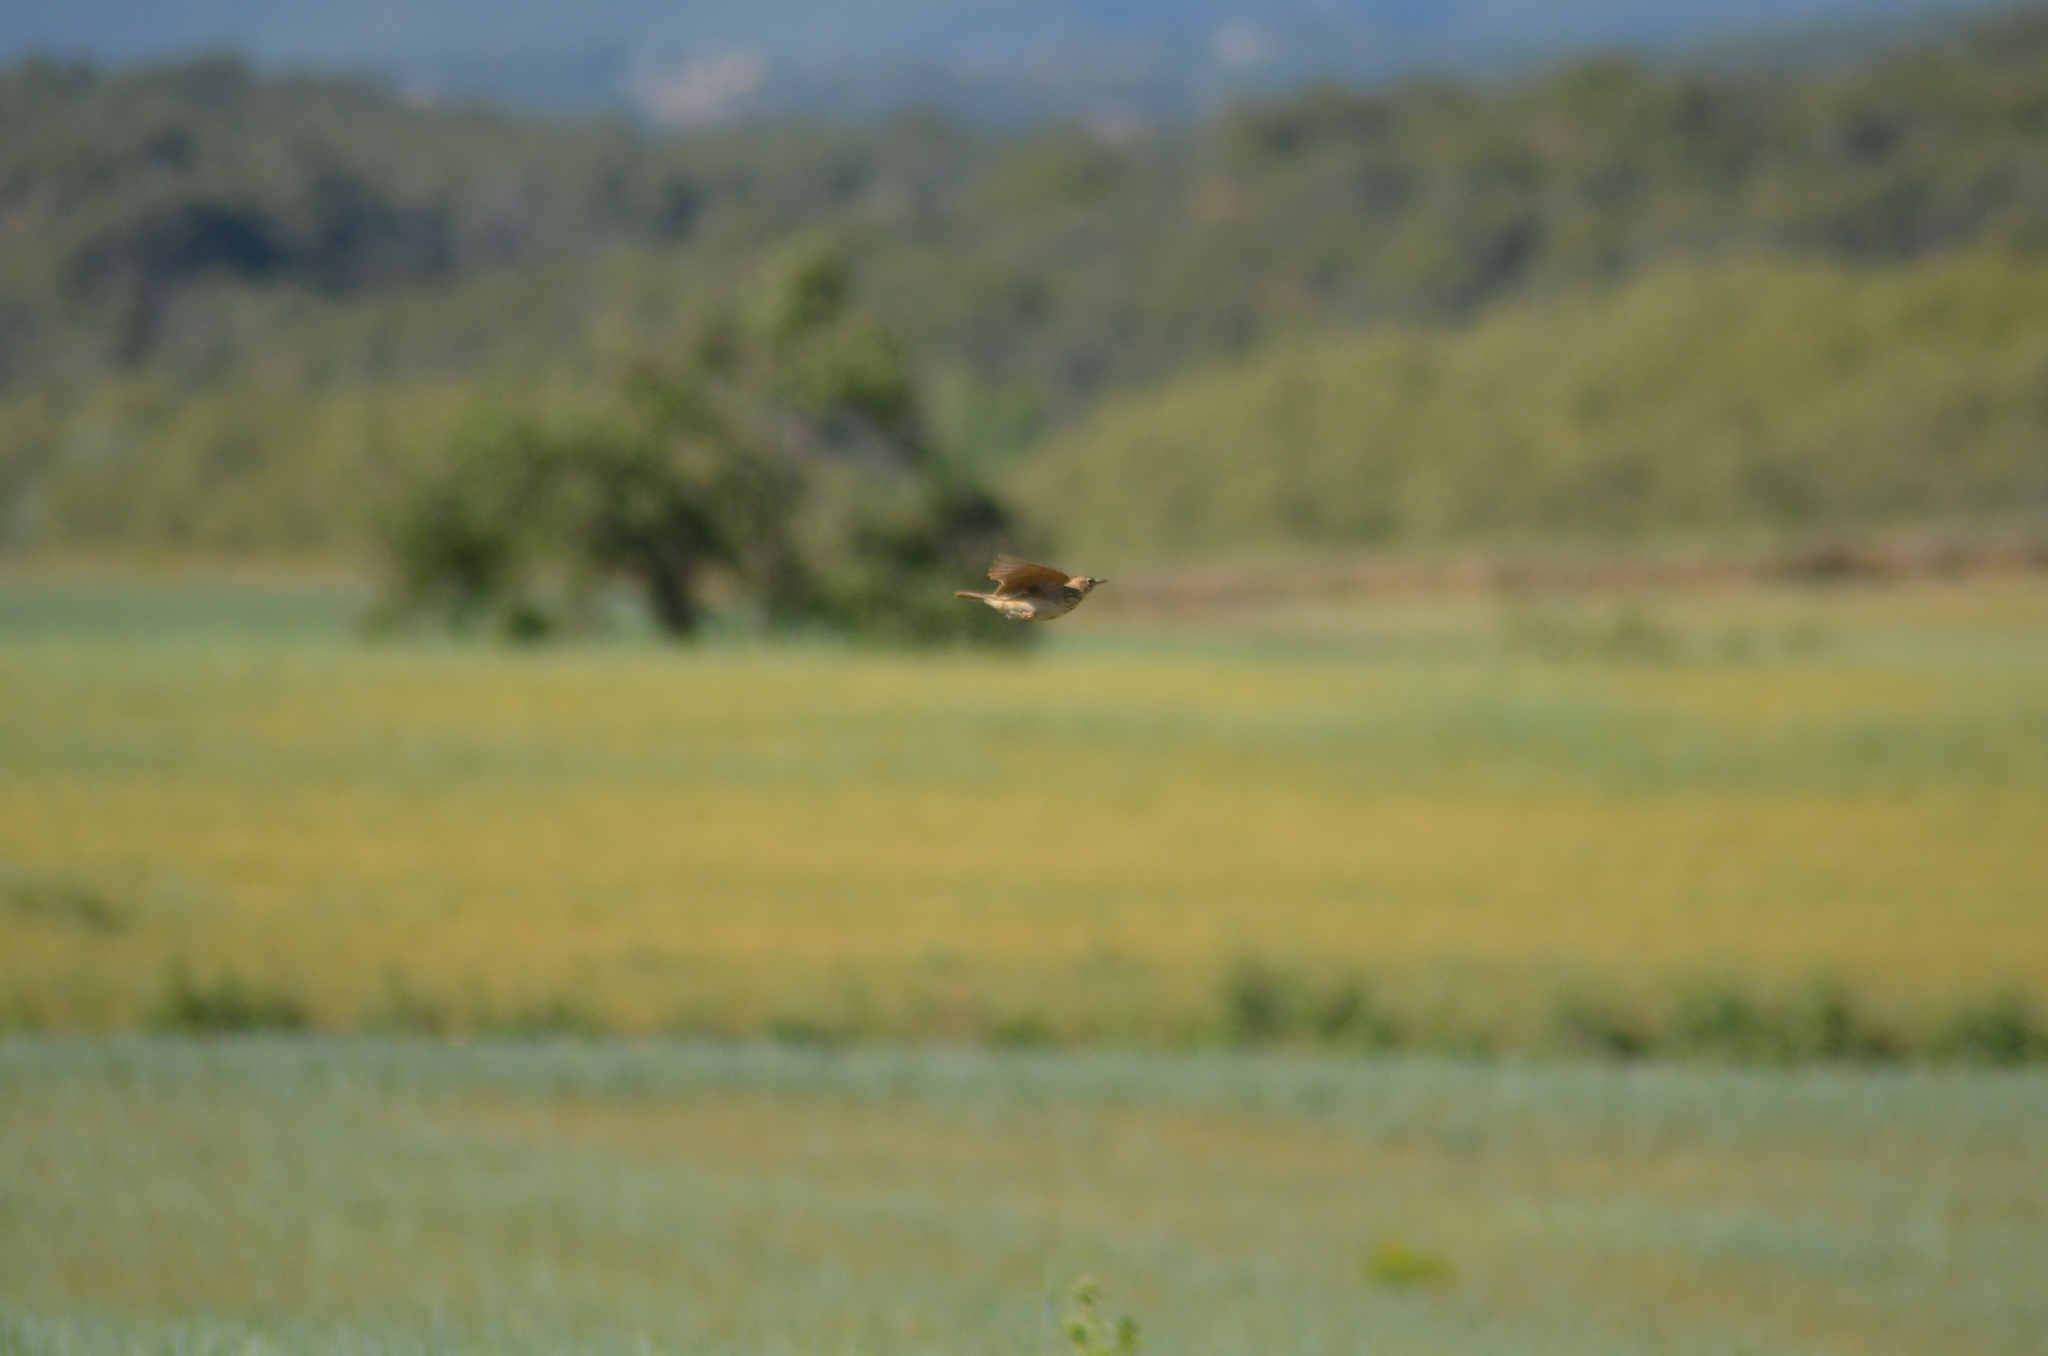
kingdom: Animalia
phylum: Chordata
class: Aves
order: Passeriformes
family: Alaudidae
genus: Galerida
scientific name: Galerida cristata
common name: Crested lark
